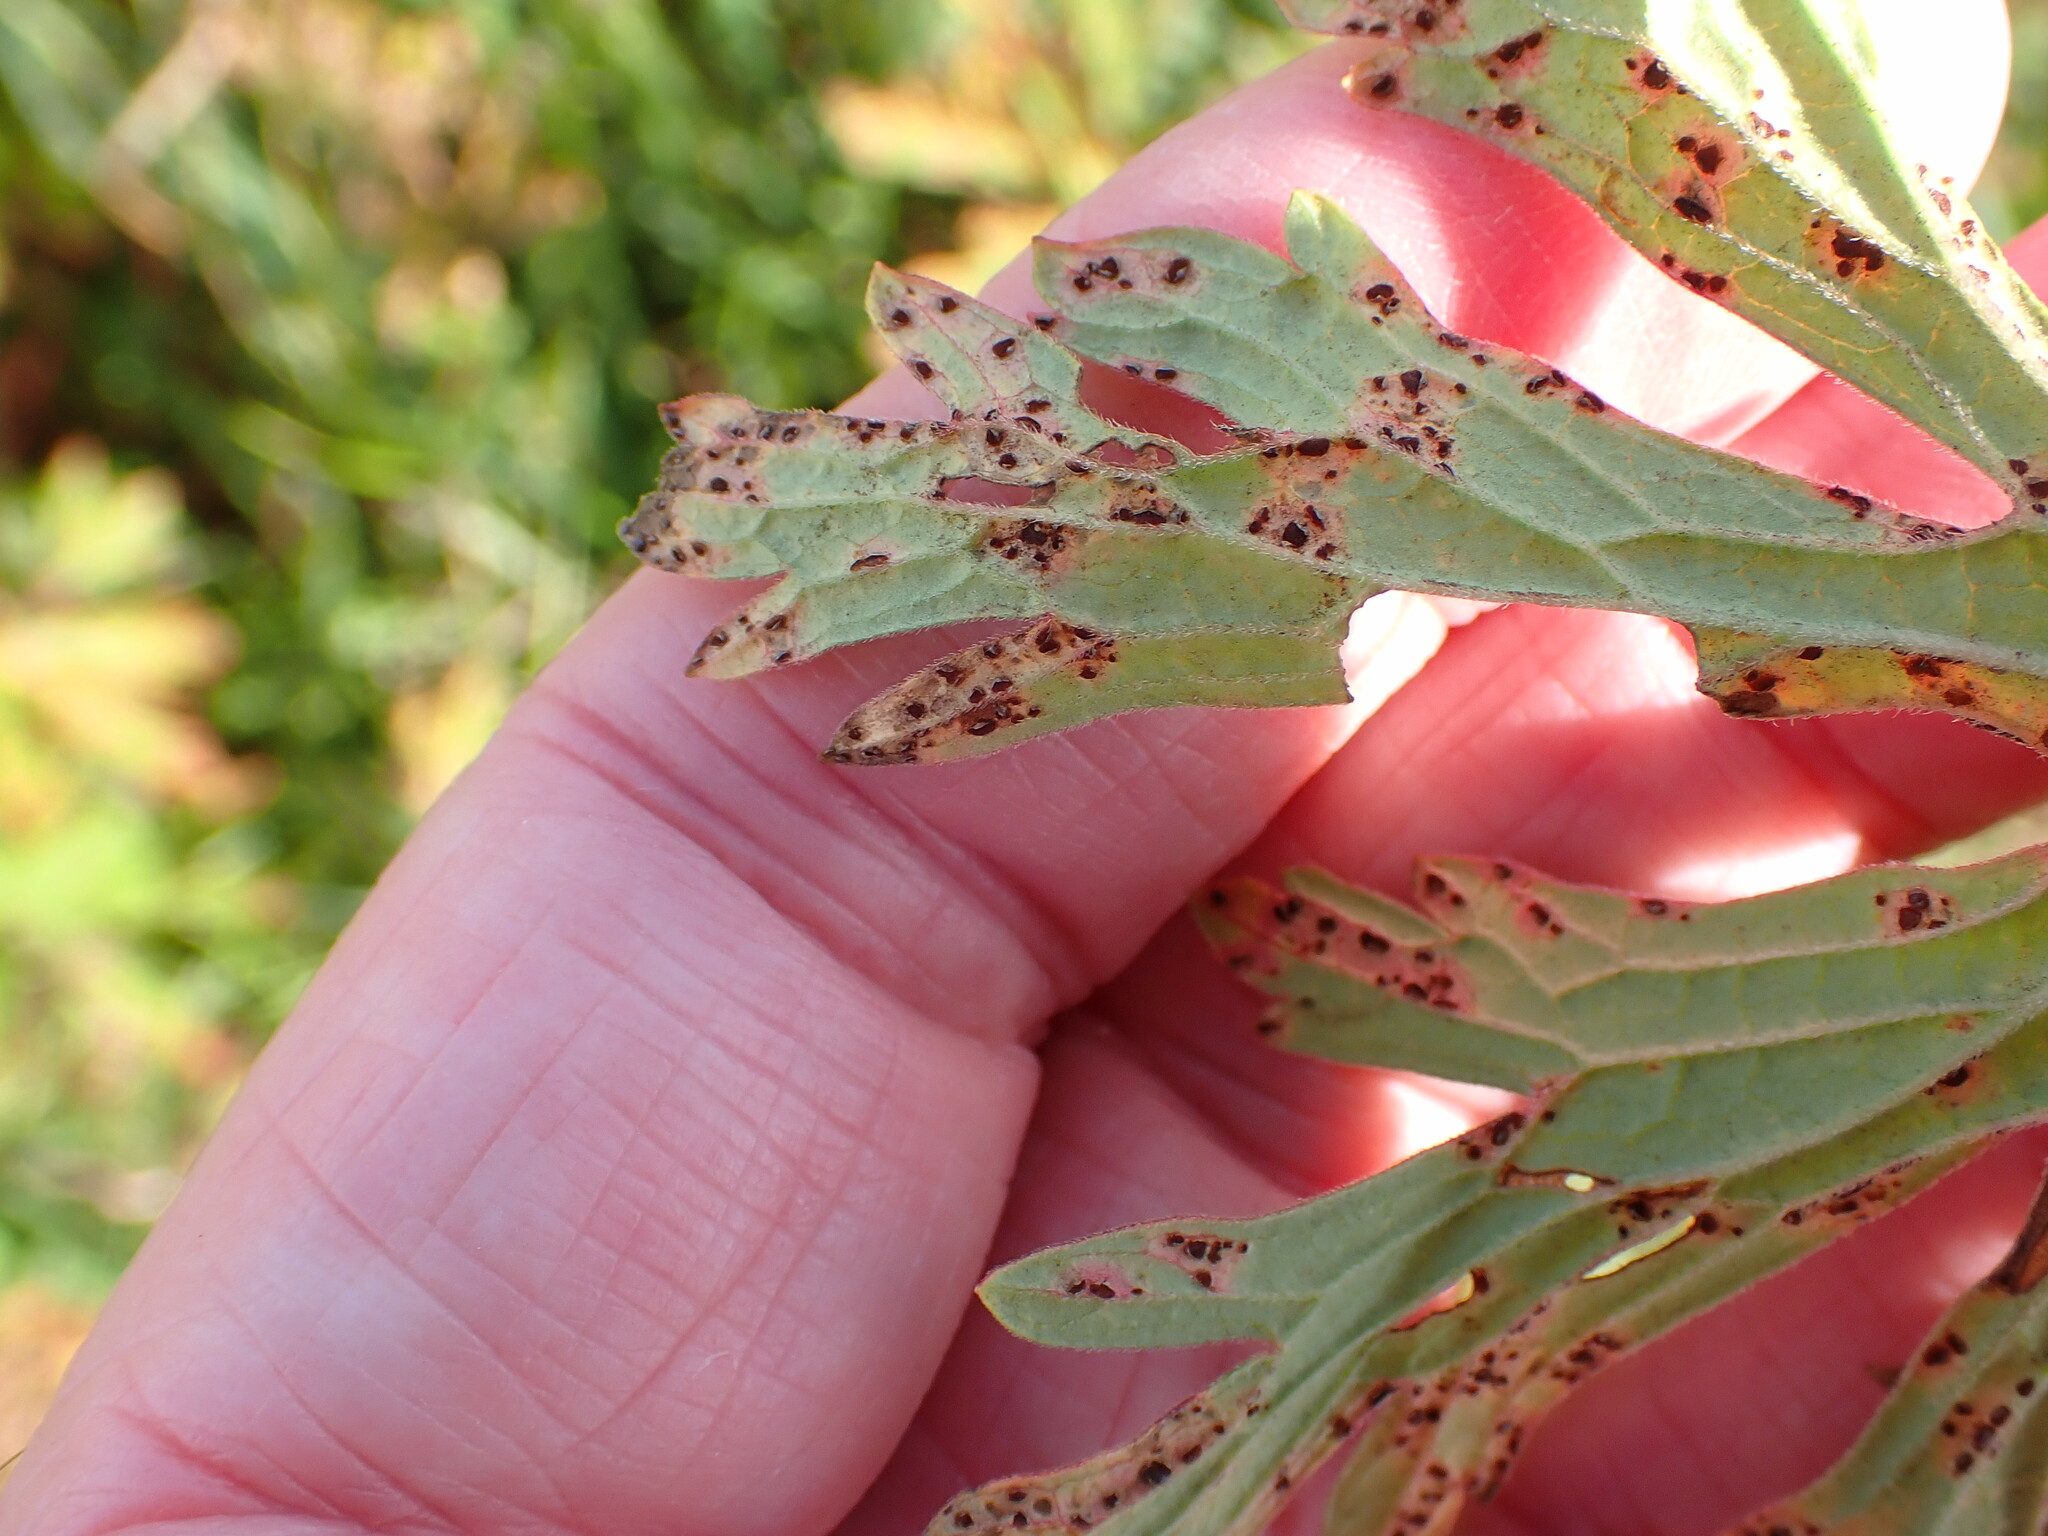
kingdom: Fungi
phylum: Basidiomycota
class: Pucciniomycetes
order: Pucciniales
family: Pucciniaceae
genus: Uromyces
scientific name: Uromyces geranii
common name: Geranium rust
